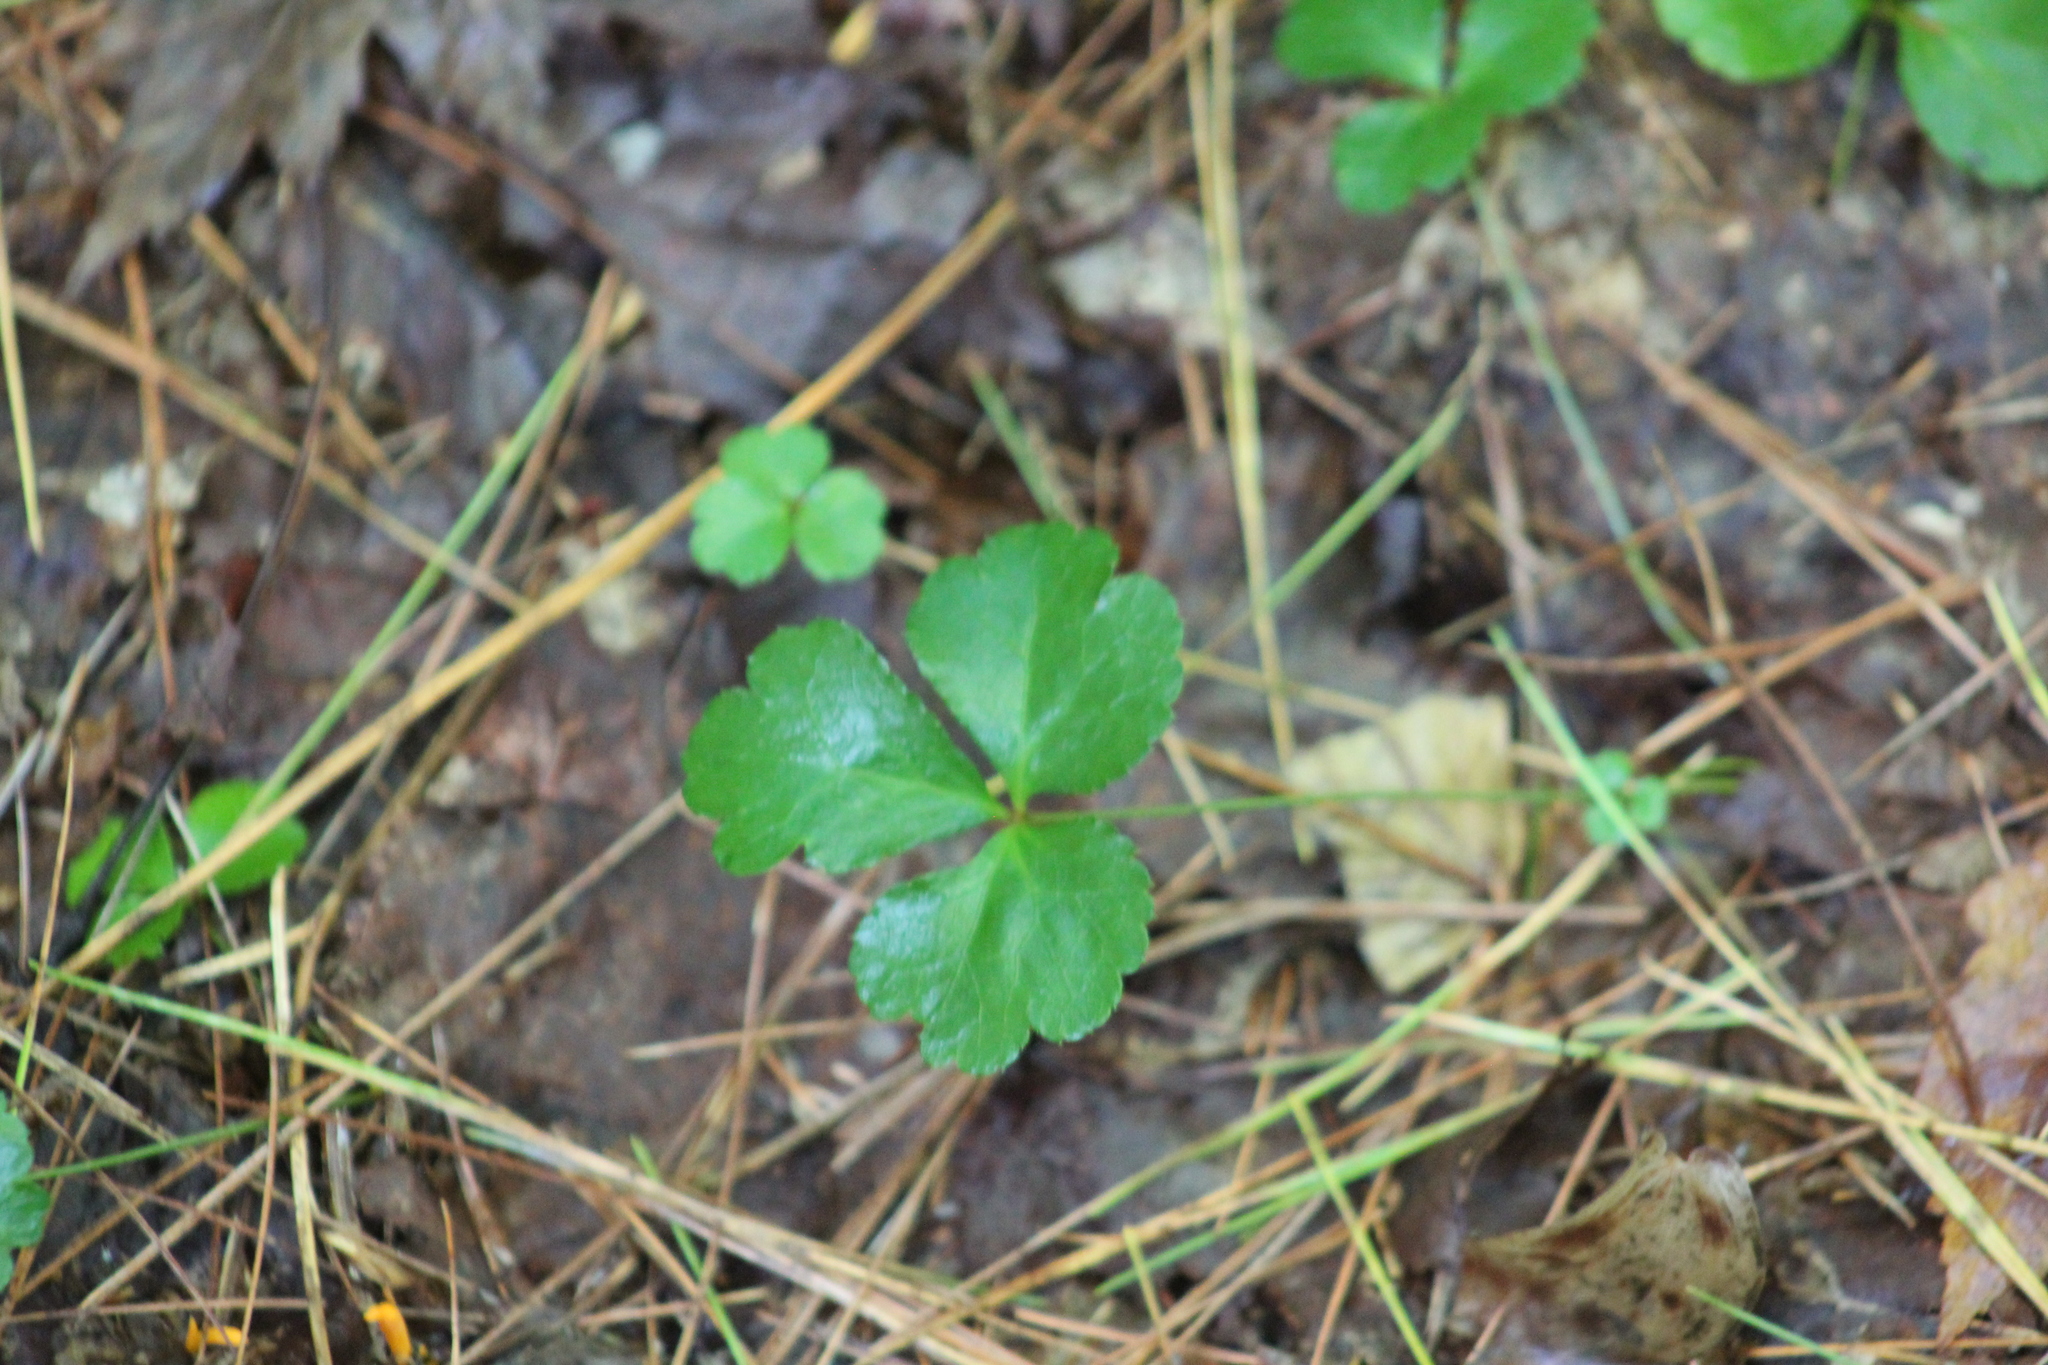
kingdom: Plantae
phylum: Tracheophyta
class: Magnoliopsida
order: Ranunculales
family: Ranunculaceae
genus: Coptis
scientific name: Coptis trifolia
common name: Canker-root
